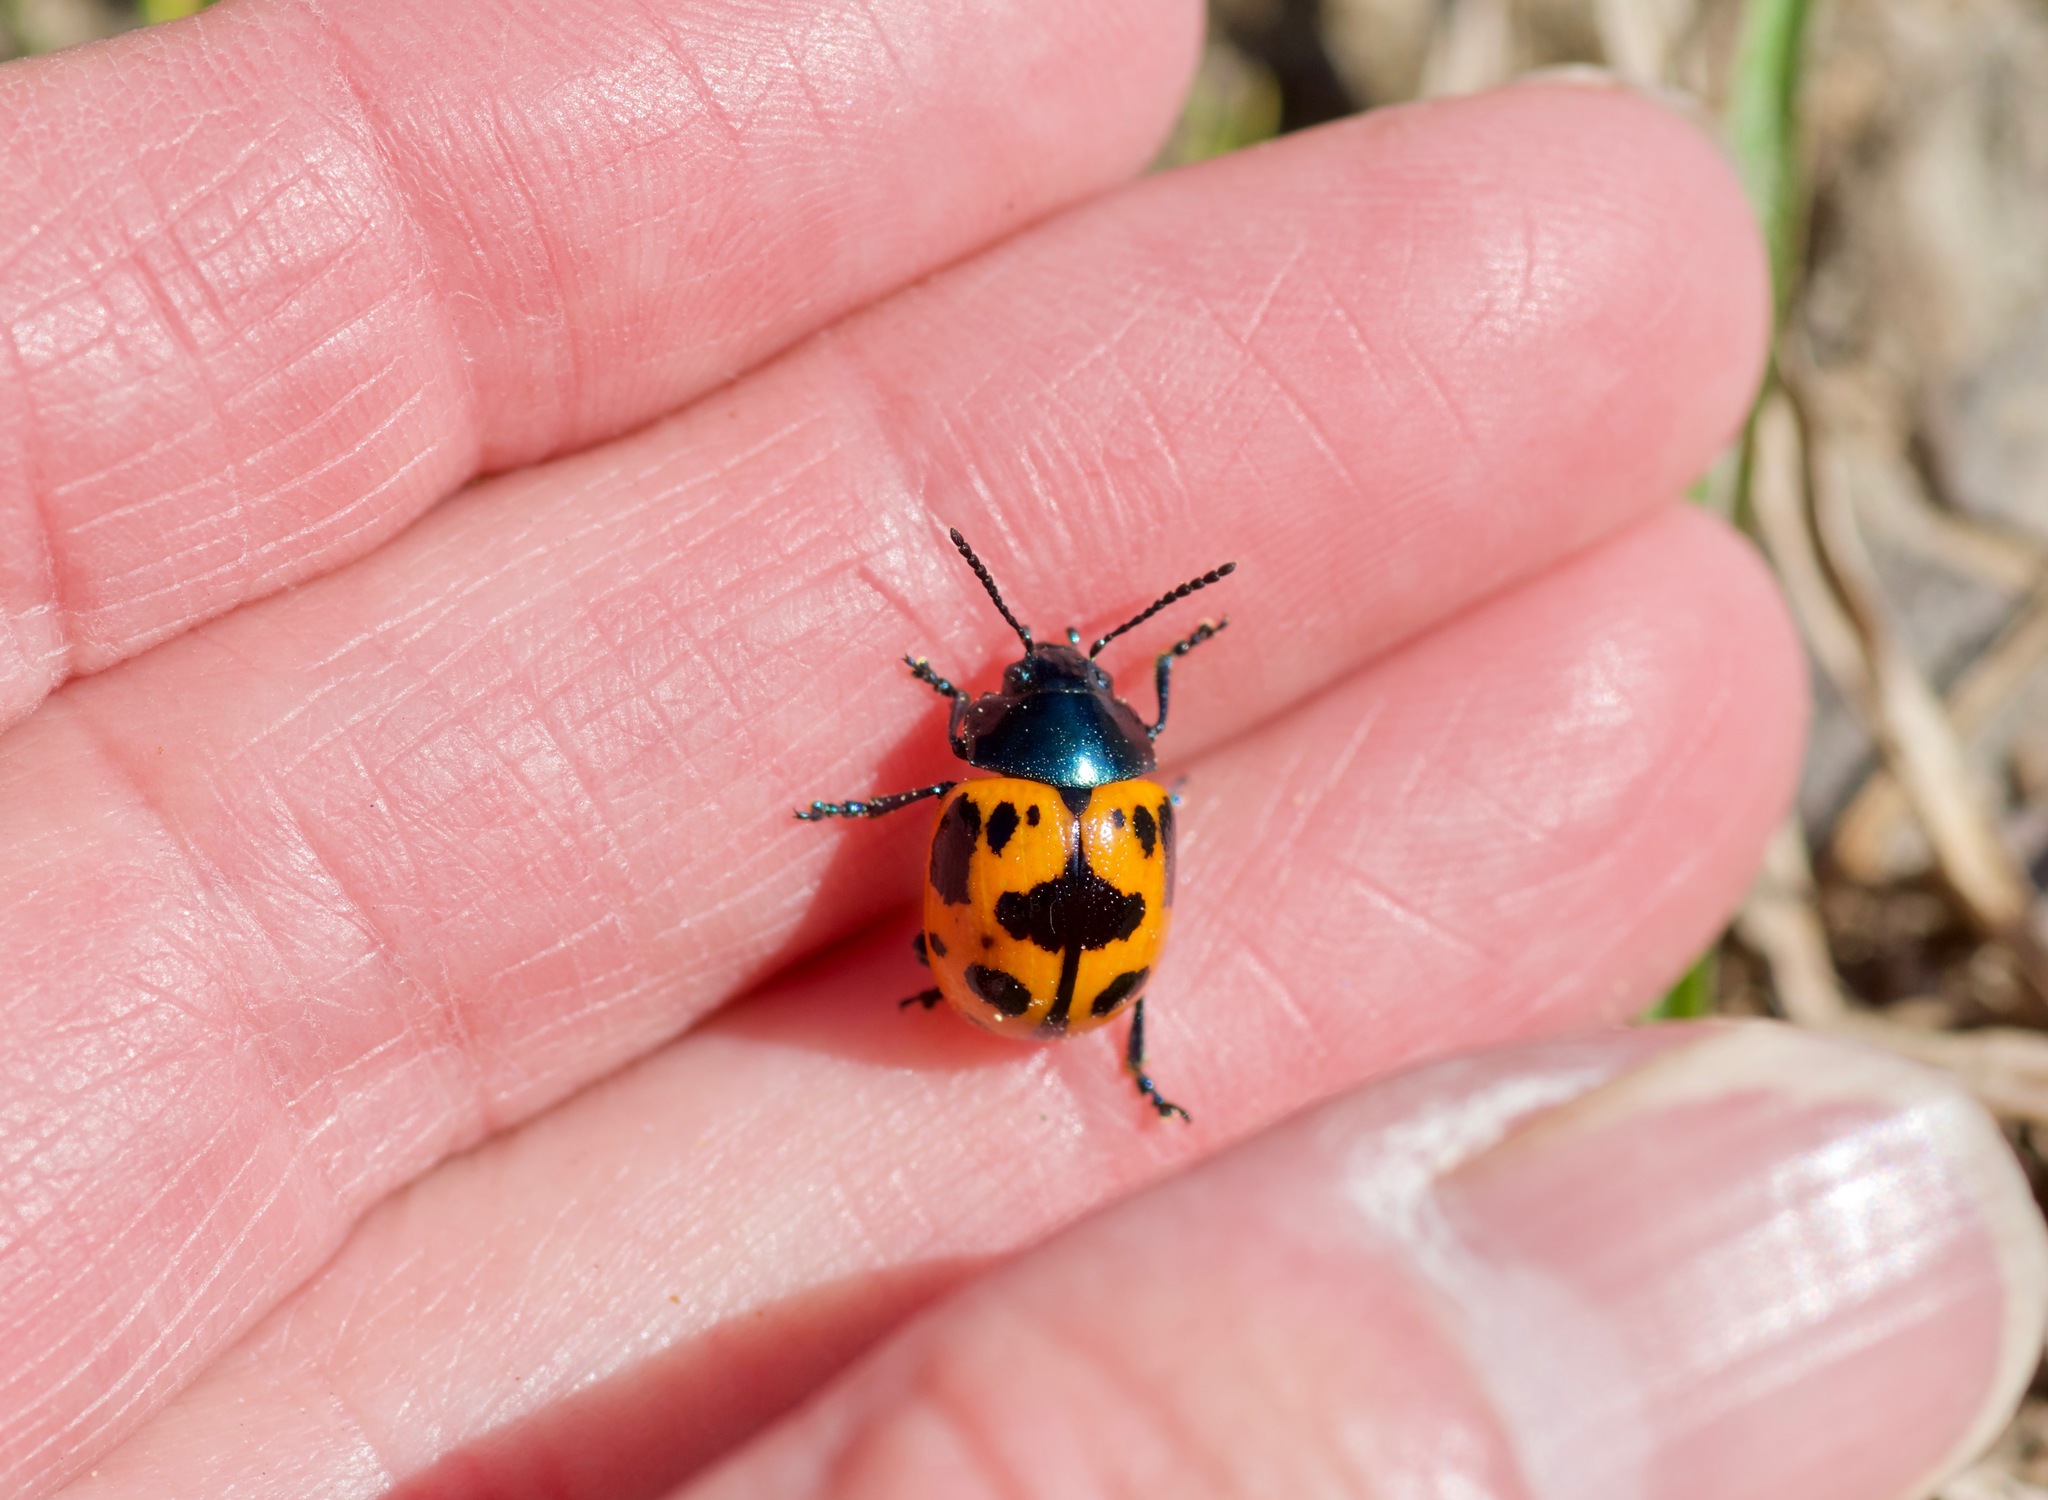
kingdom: Animalia
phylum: Arthropoda
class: Insecta
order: Coleoptera
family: Chrysomelidae
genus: Labidomera
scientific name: Labidomera clivicollis
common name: Swamp milkweed leaf beetle
